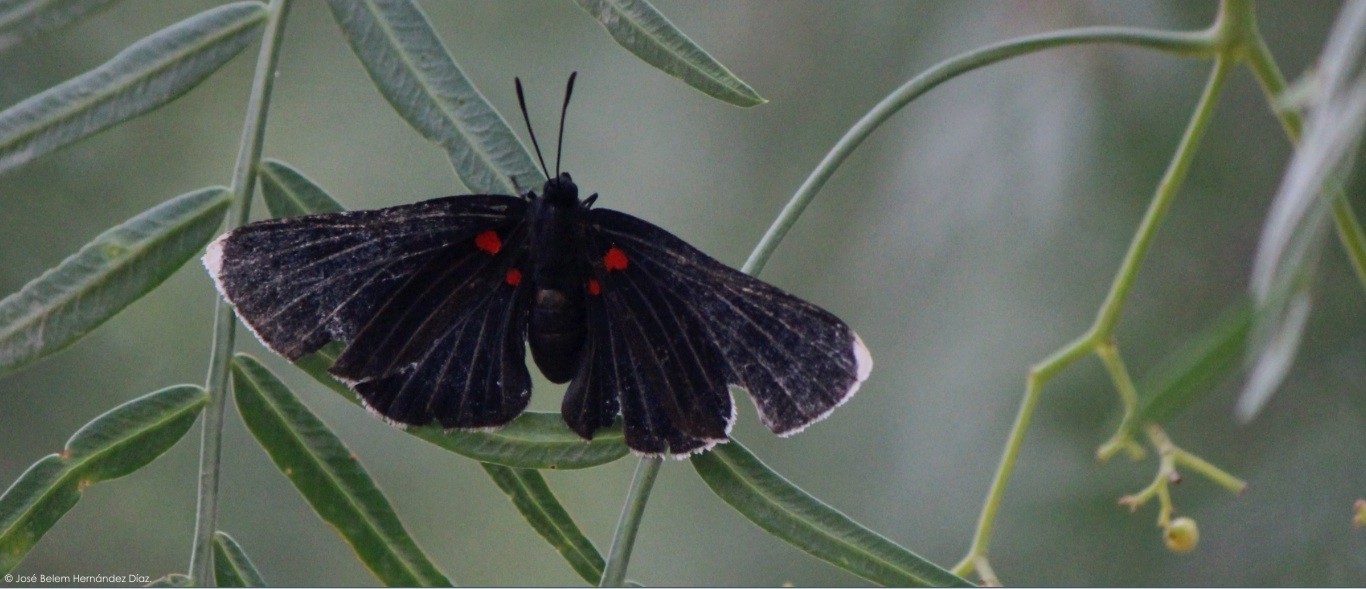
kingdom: Animalia
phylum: Arthropoda
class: Insecta
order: Lepidoptera
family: Lycaenidae
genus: Melanis
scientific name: Melanis
